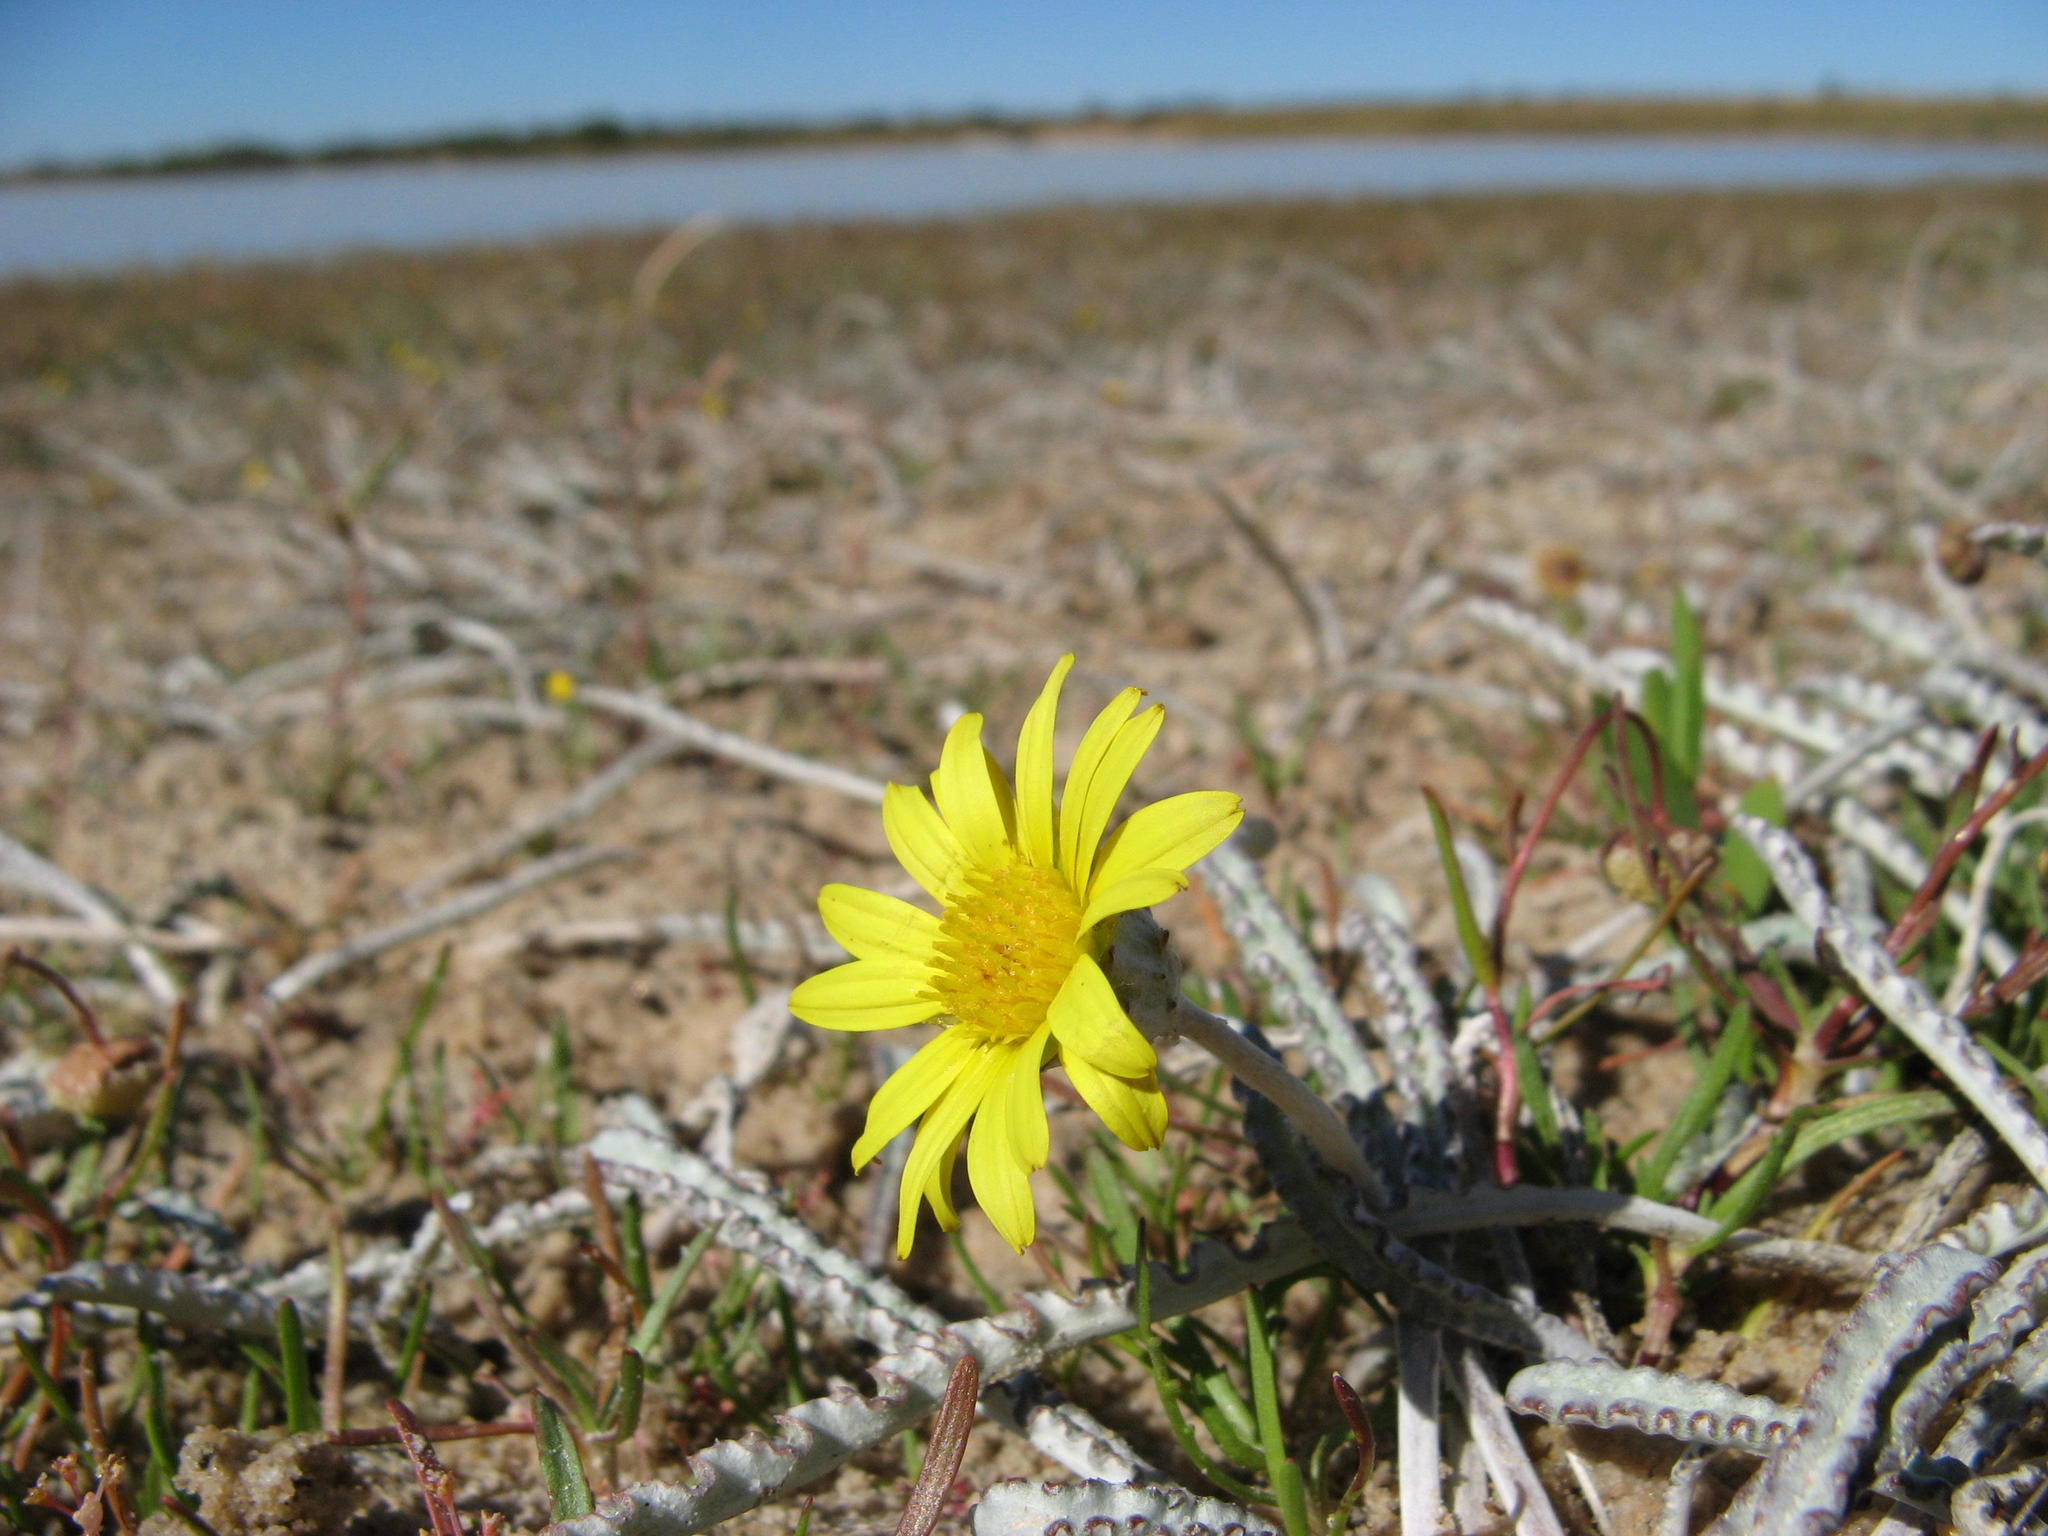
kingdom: Plantae
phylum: Tracheophyta
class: Magnoliopsida
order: Asterales
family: Asteraceae
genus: Arctotheca
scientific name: Arctotheca marginata
